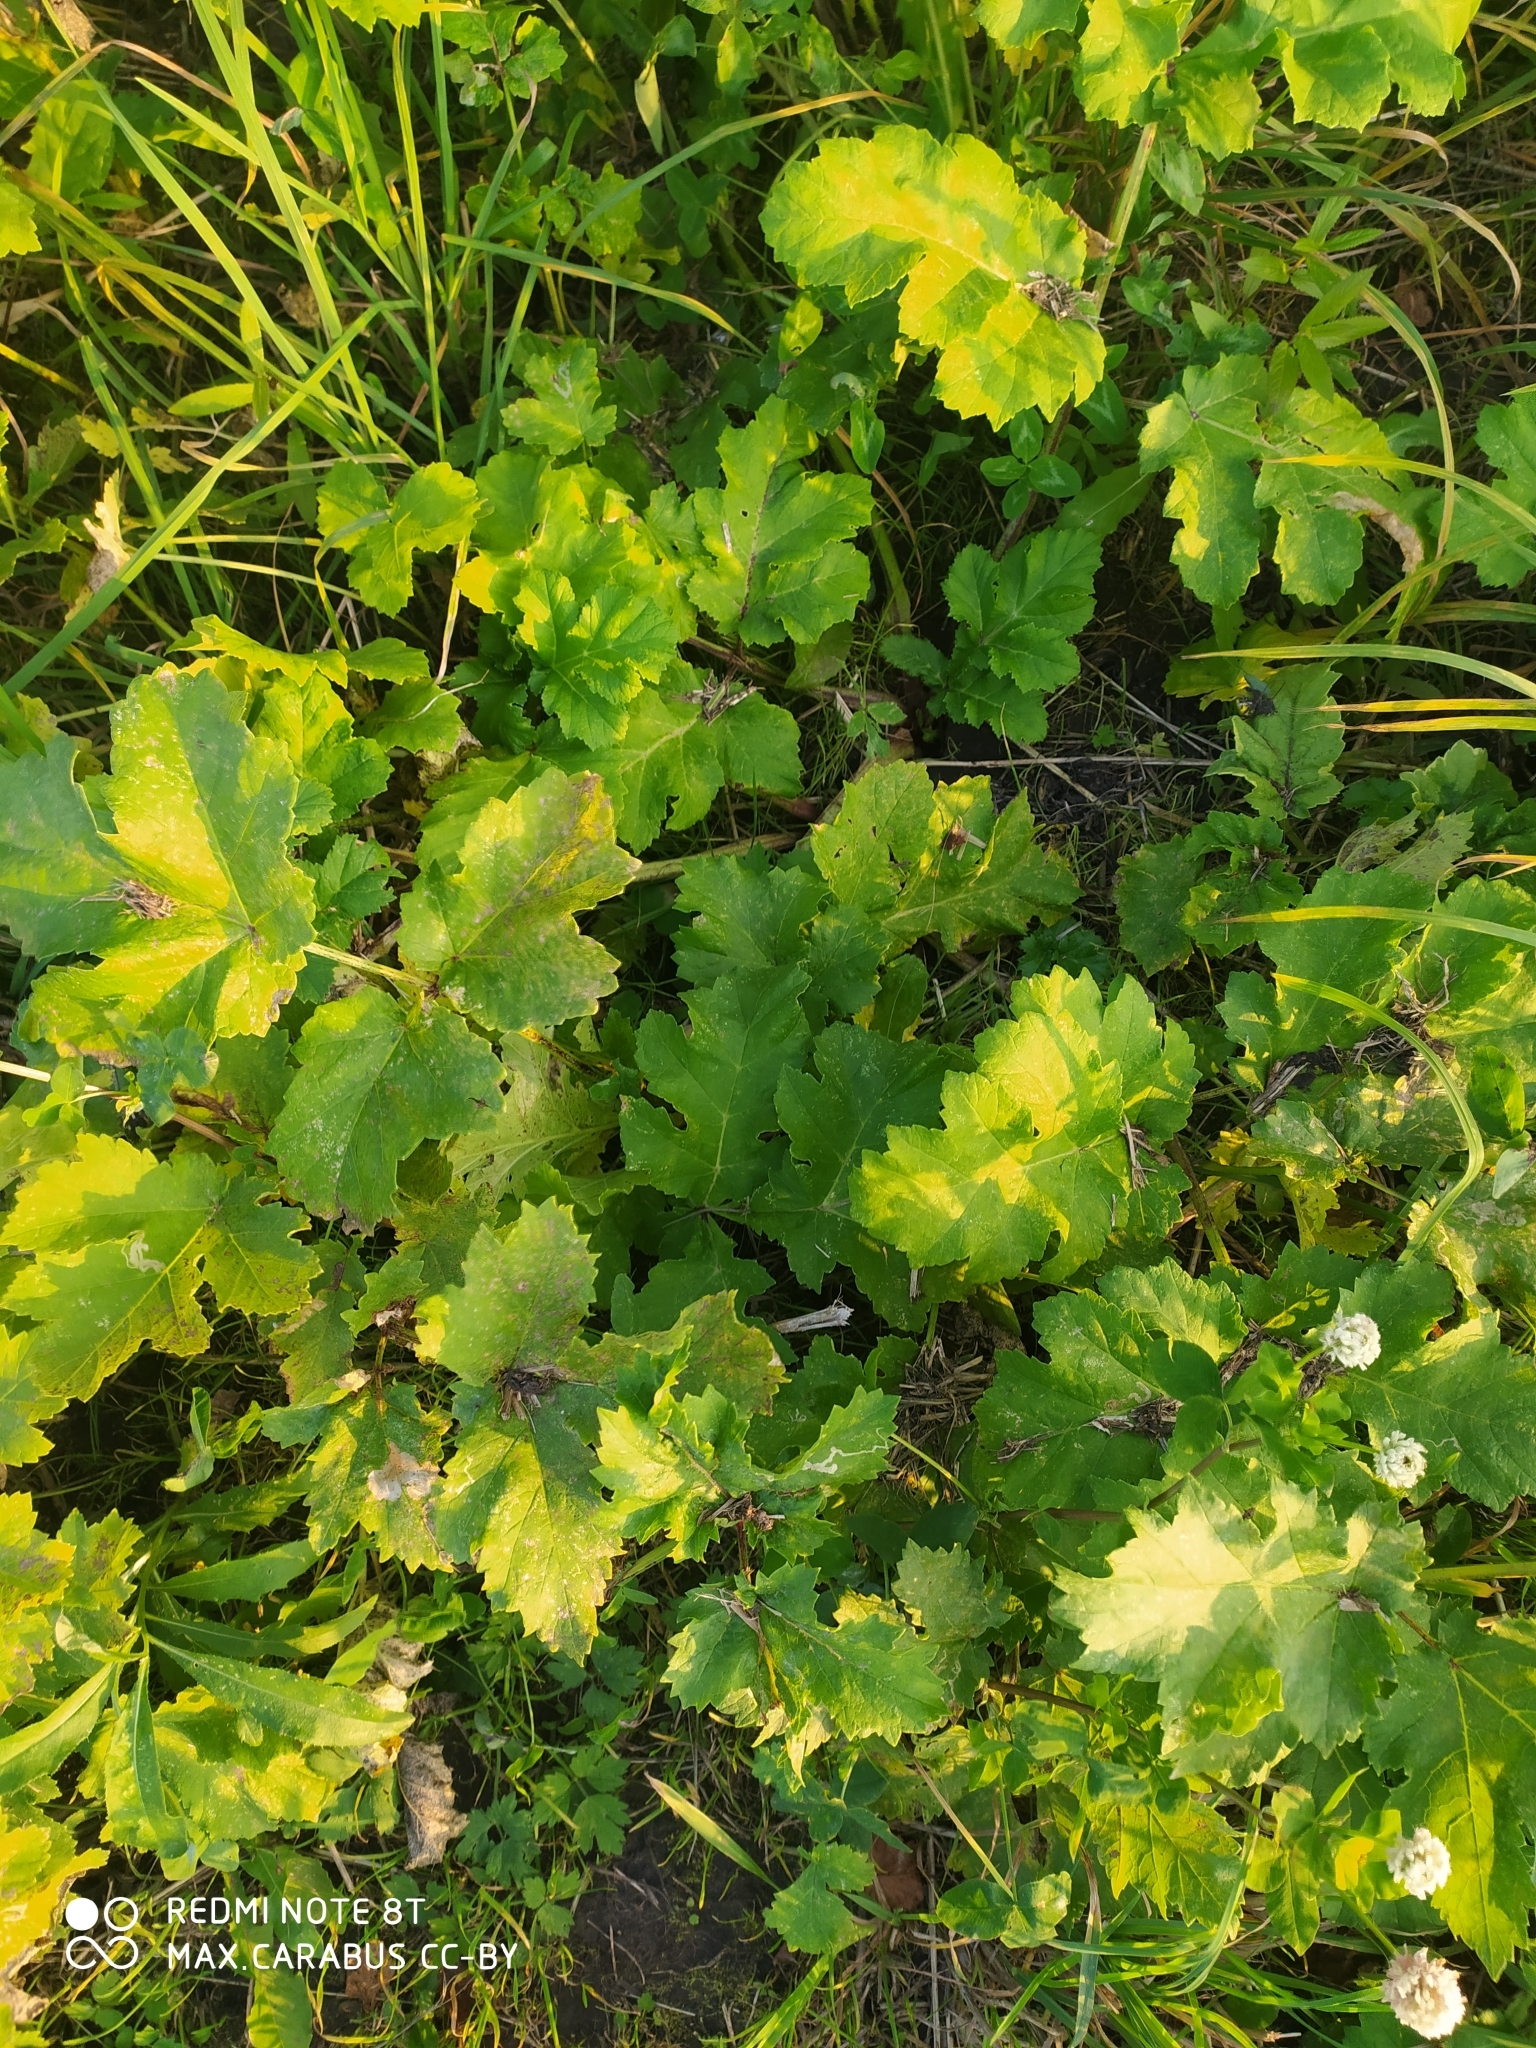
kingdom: Plantae
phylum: Tracheophyta
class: Magnoliopsida
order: Apiales
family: Apiaceae
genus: Heracleum
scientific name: Heracleum sosnowskyi
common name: Sosnowsky's hogweed
